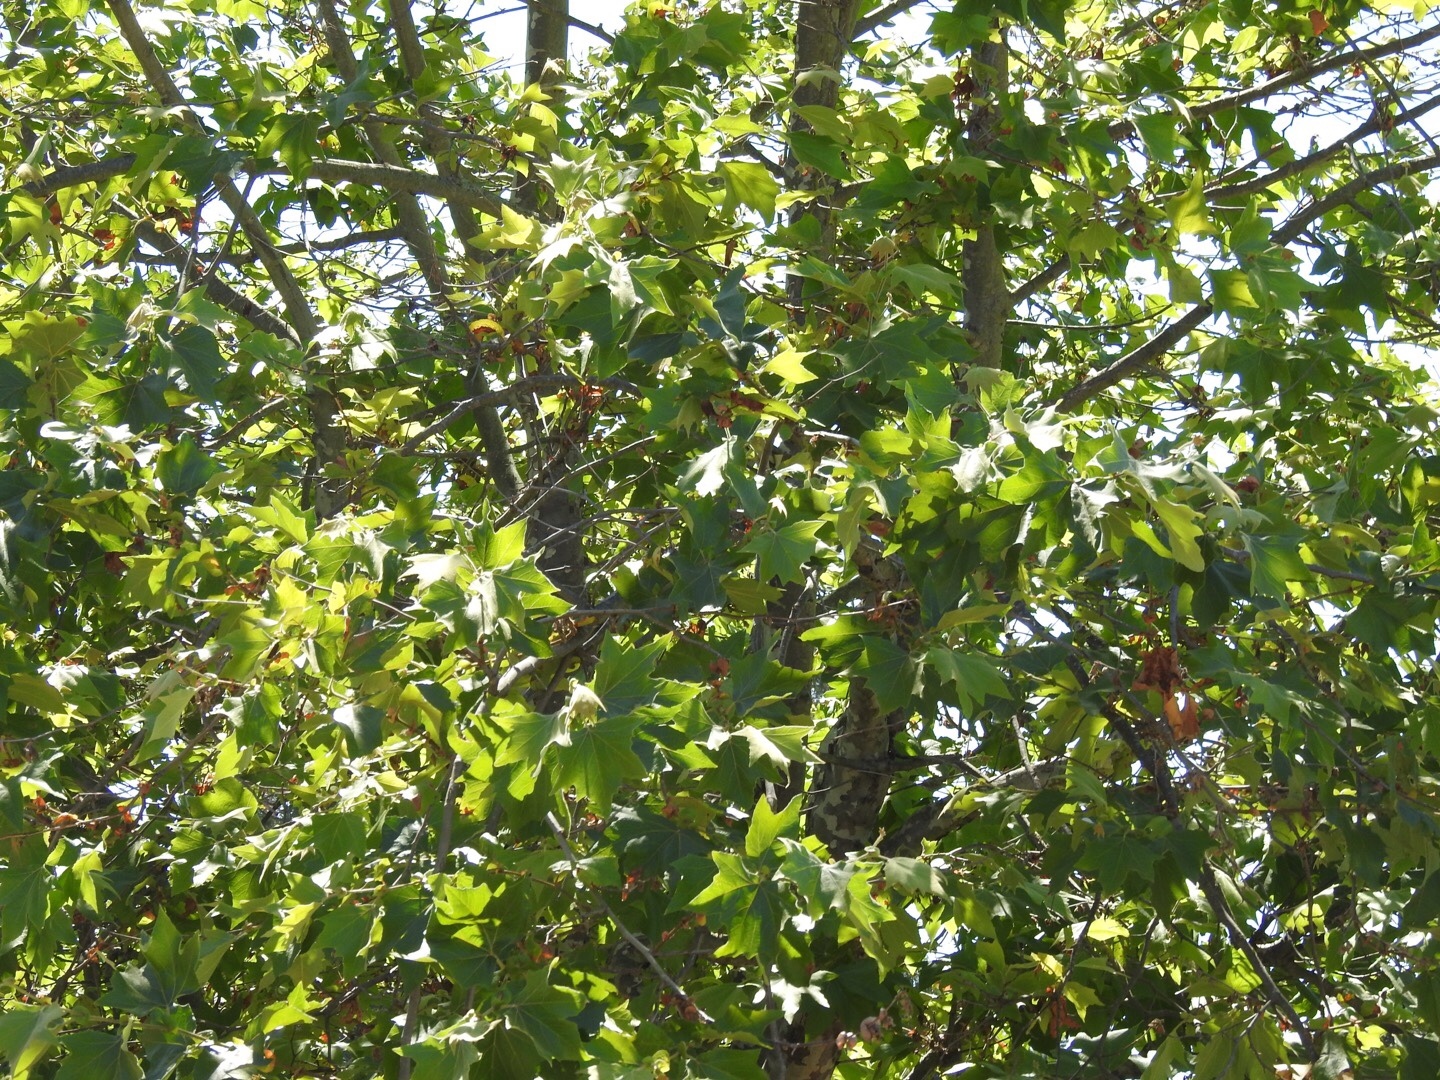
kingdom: Plantae
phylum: Tracheophyta
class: Magnoliopsida
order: Proteales
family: Platanaceae
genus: Platanus
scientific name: Platanus racemosa
